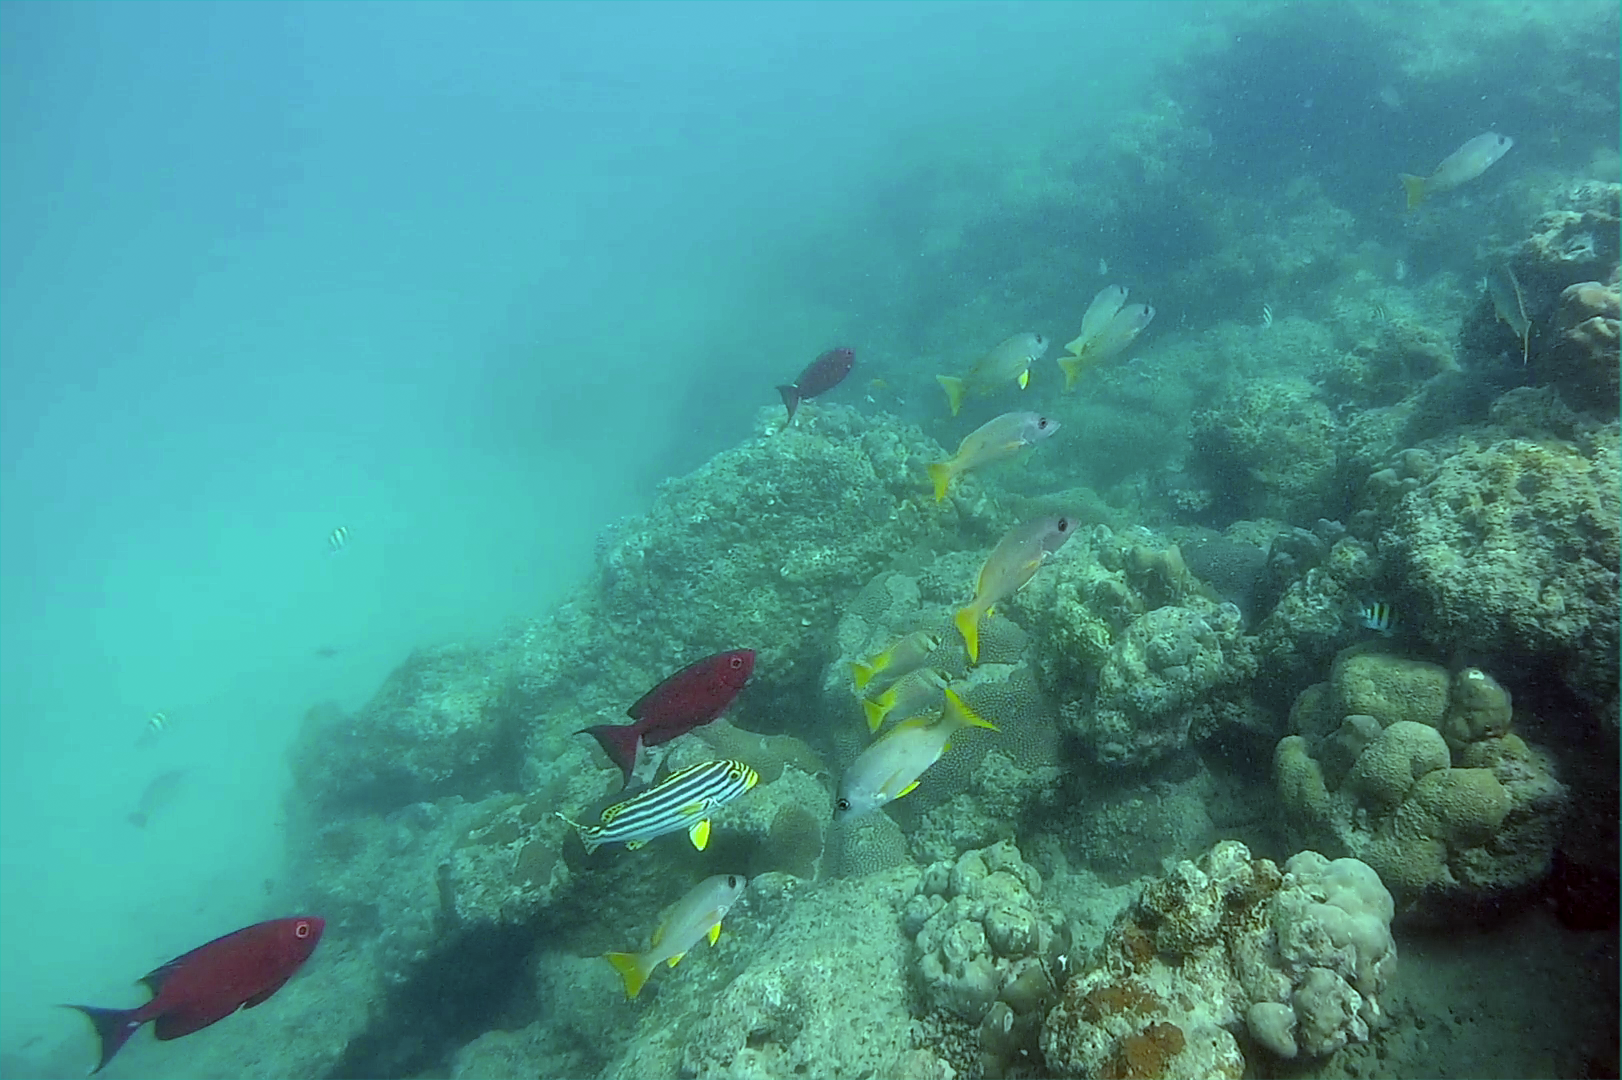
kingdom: Animalia
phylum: Chordata
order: Perciformes
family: Lutjanidae
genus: Lutjanus
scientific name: Lutjanus monostigma
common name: Onespot snapper
